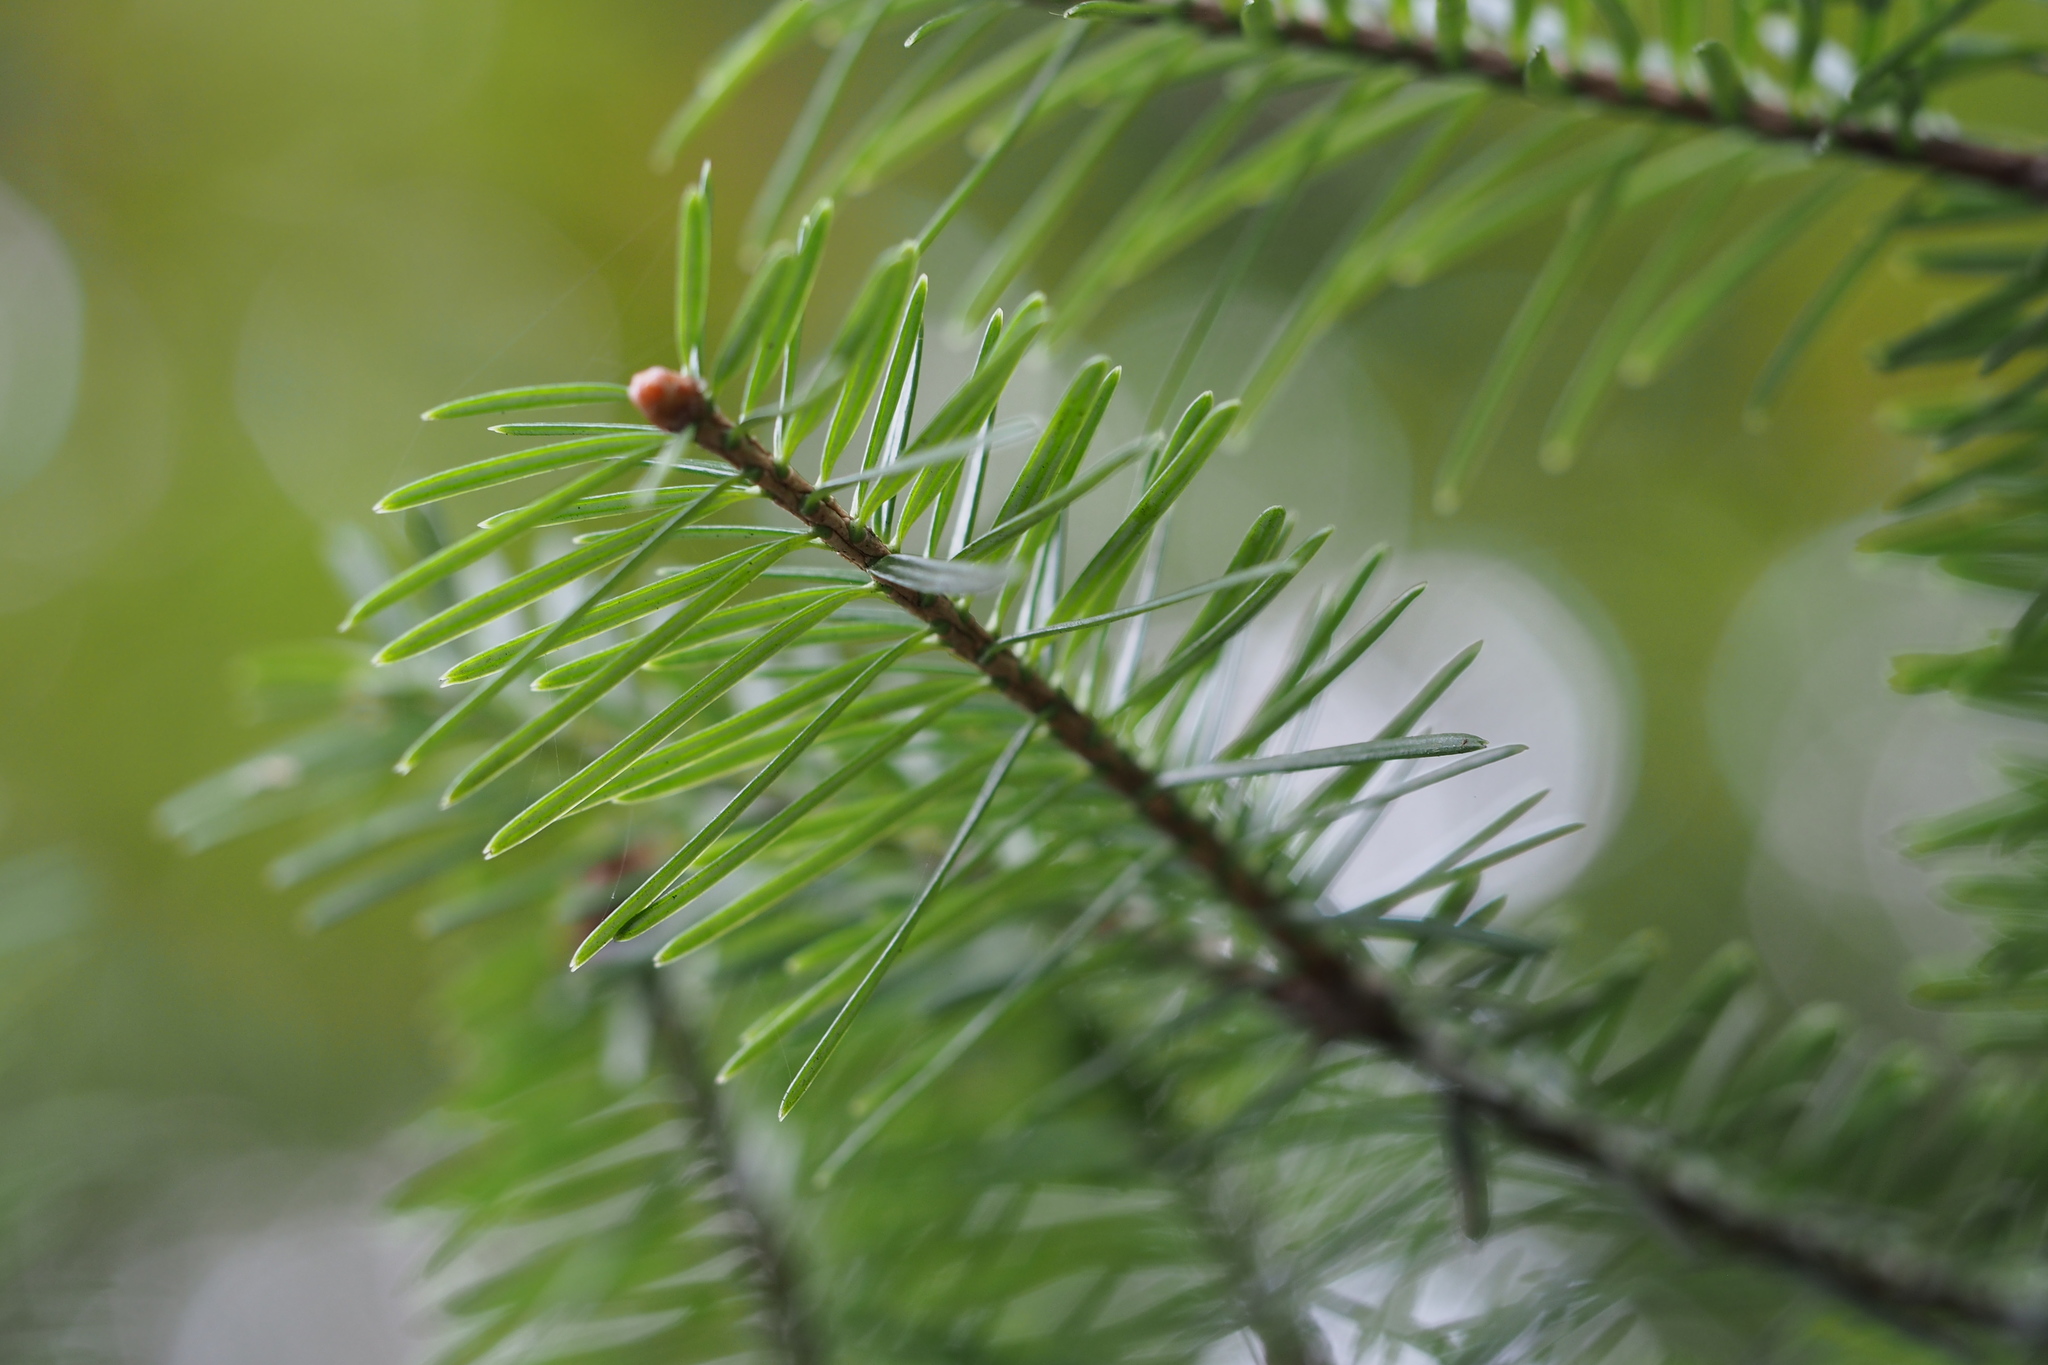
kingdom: Plantae
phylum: Tracheophyta
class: Pinopsida
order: Pinales
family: Pinaceae
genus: Abies
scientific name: Abies homolepis
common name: Nikko fir
